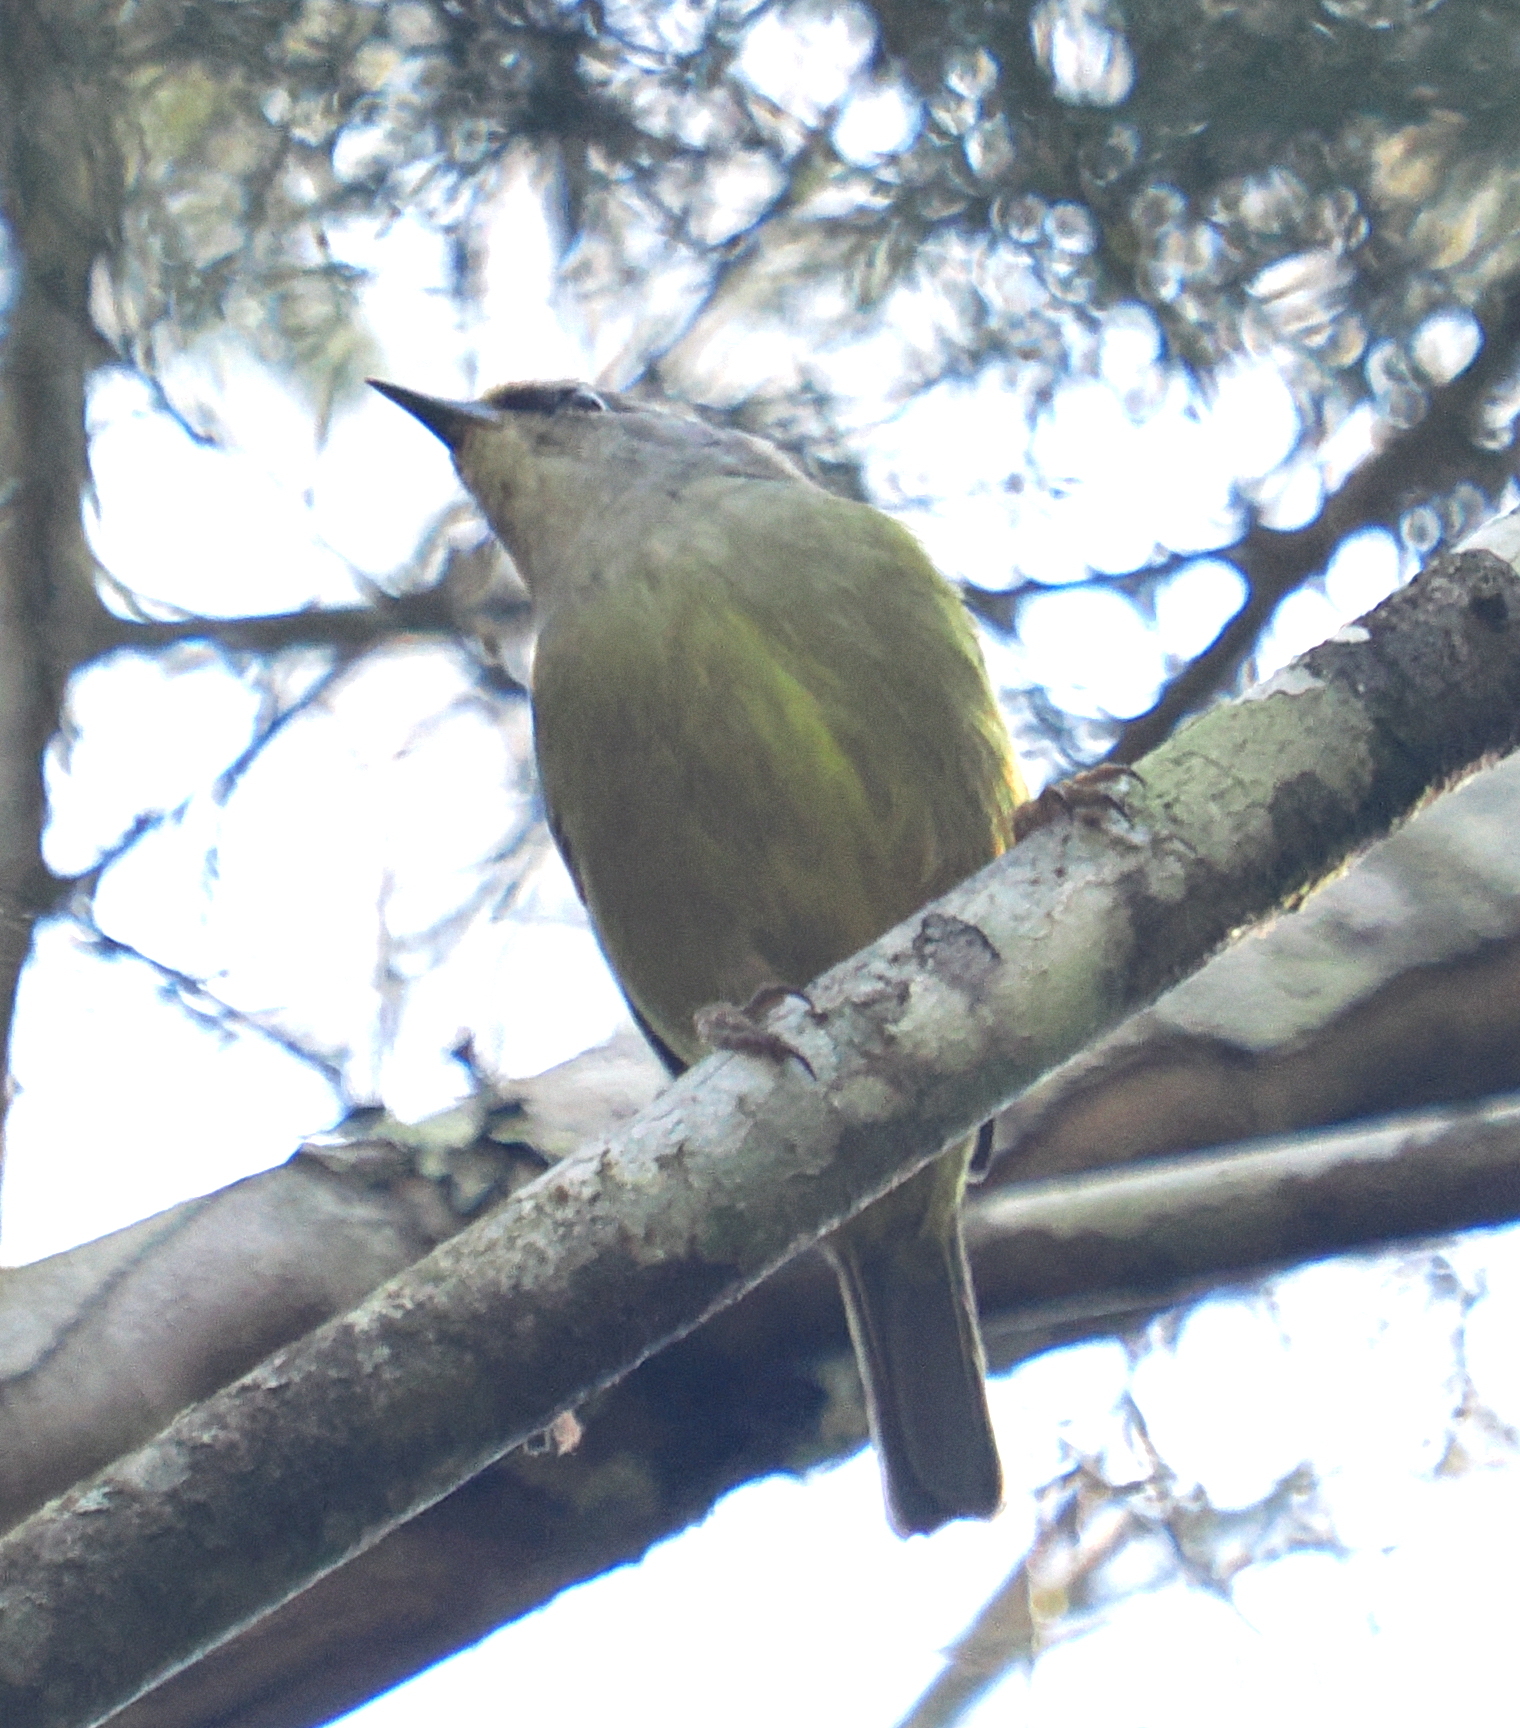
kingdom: Animalia
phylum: Chordata
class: Aves
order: Passeriformes
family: Zosteropidae
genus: Lophozosterops
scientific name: Lophozosterops javanicus
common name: Grey-throated ibon
